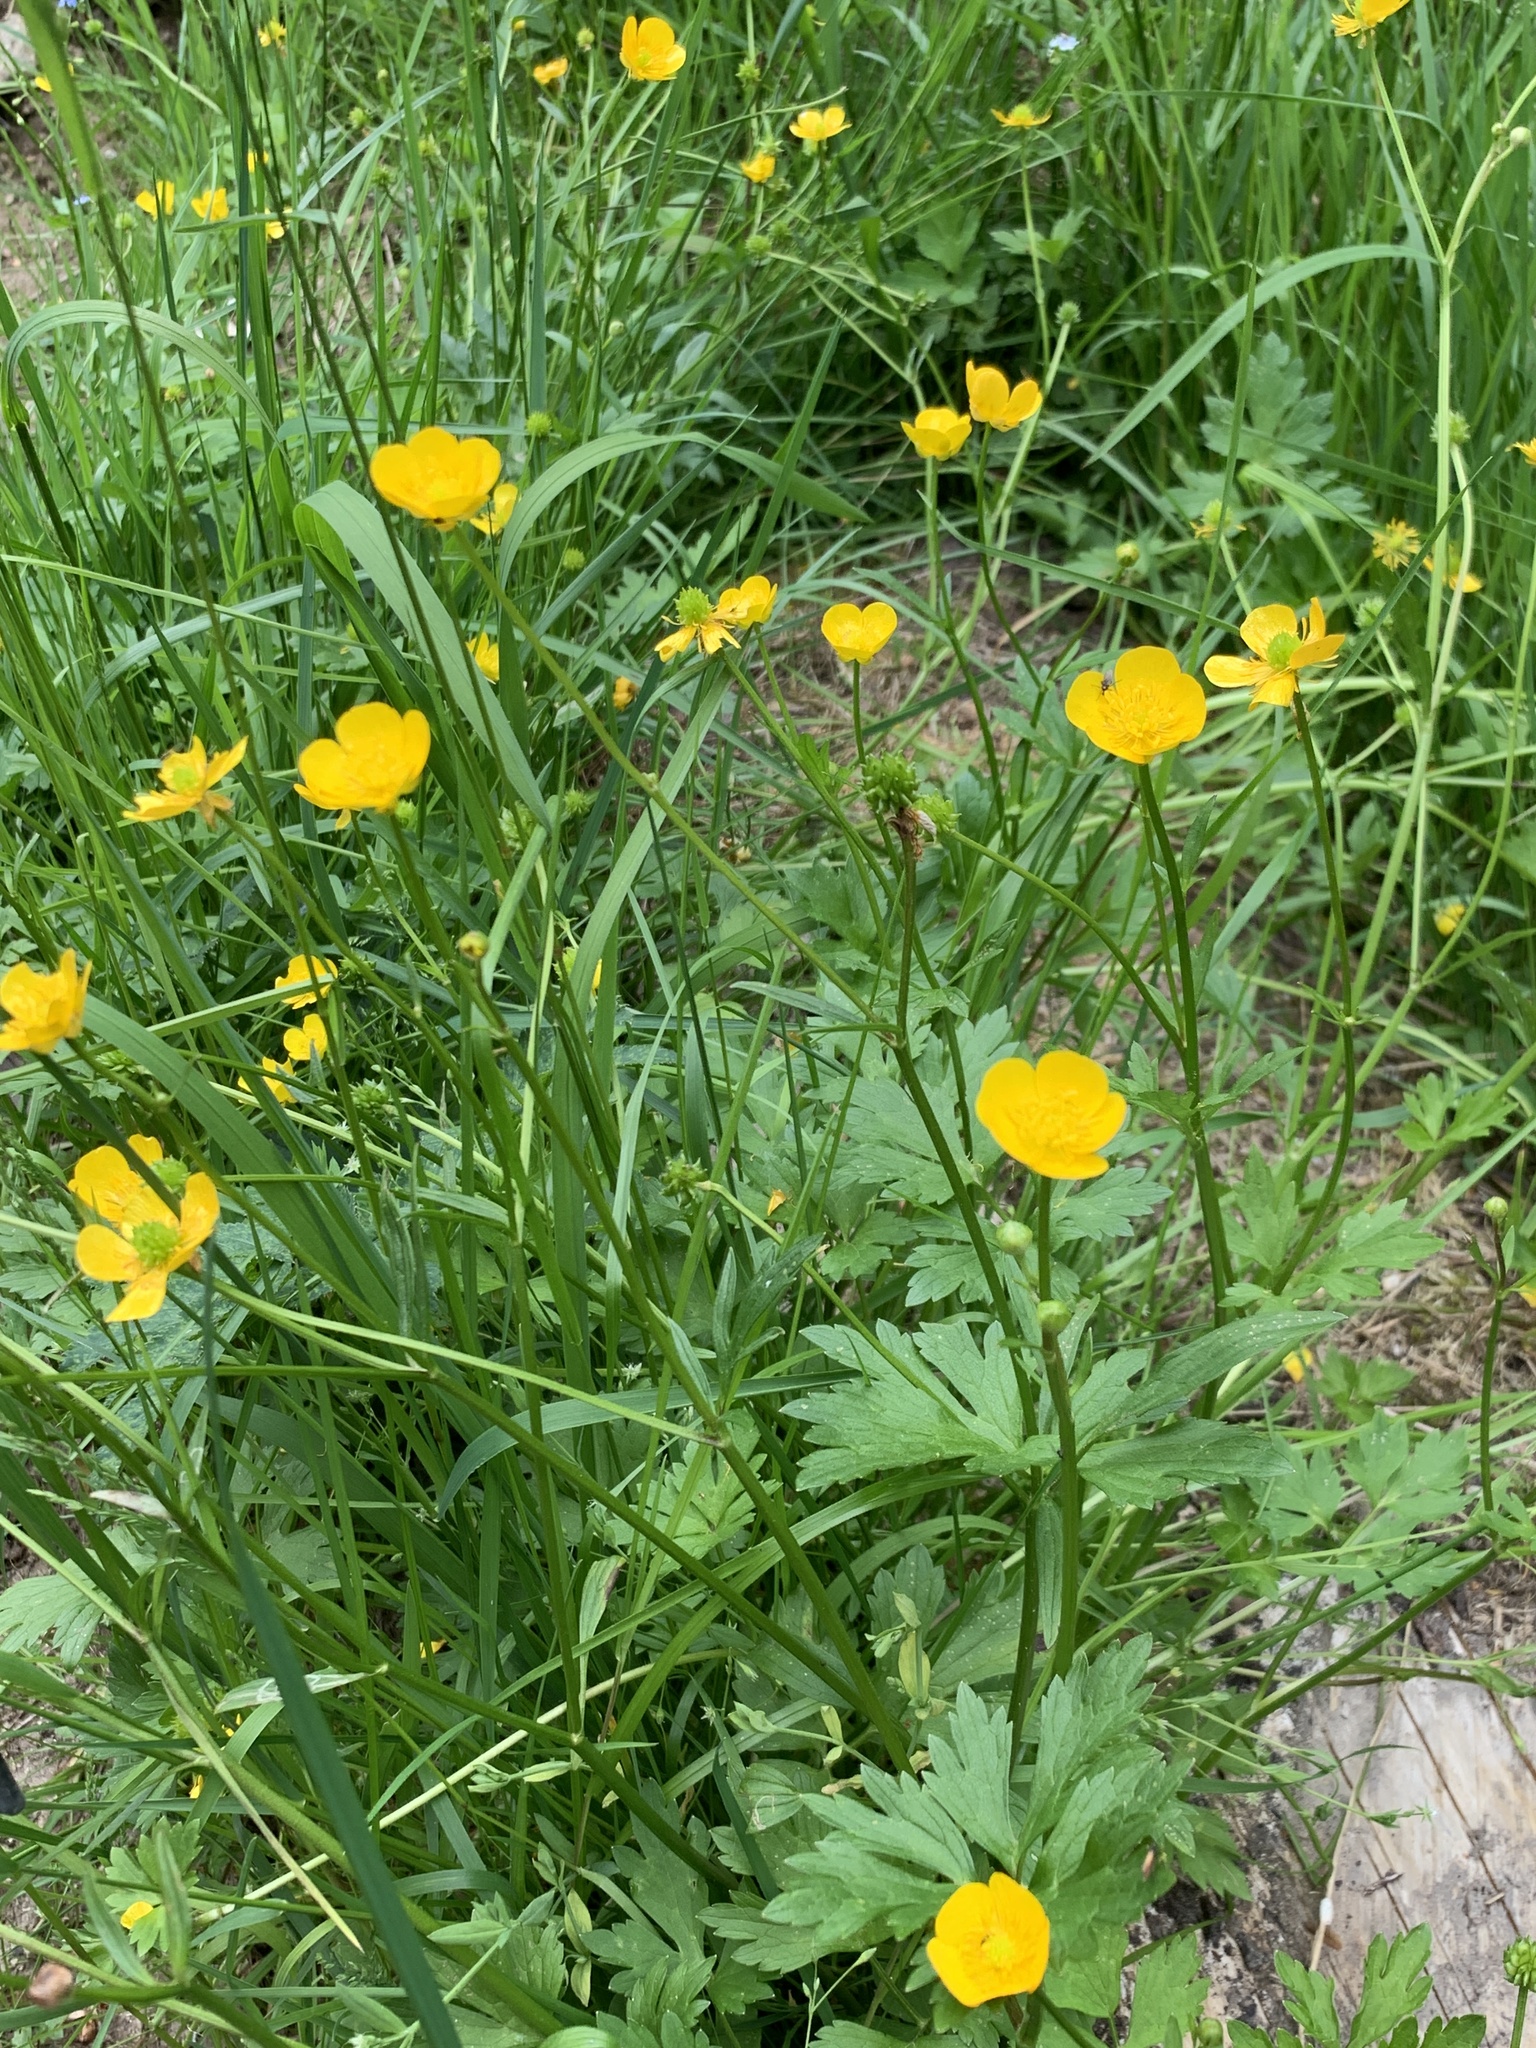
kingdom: Plantae
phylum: Tracheophyta
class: Magnoliopsida
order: Ranunculales
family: Ranunculaceae
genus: Ranunculus
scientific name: Ranunculus repens
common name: Creeping buttercup
